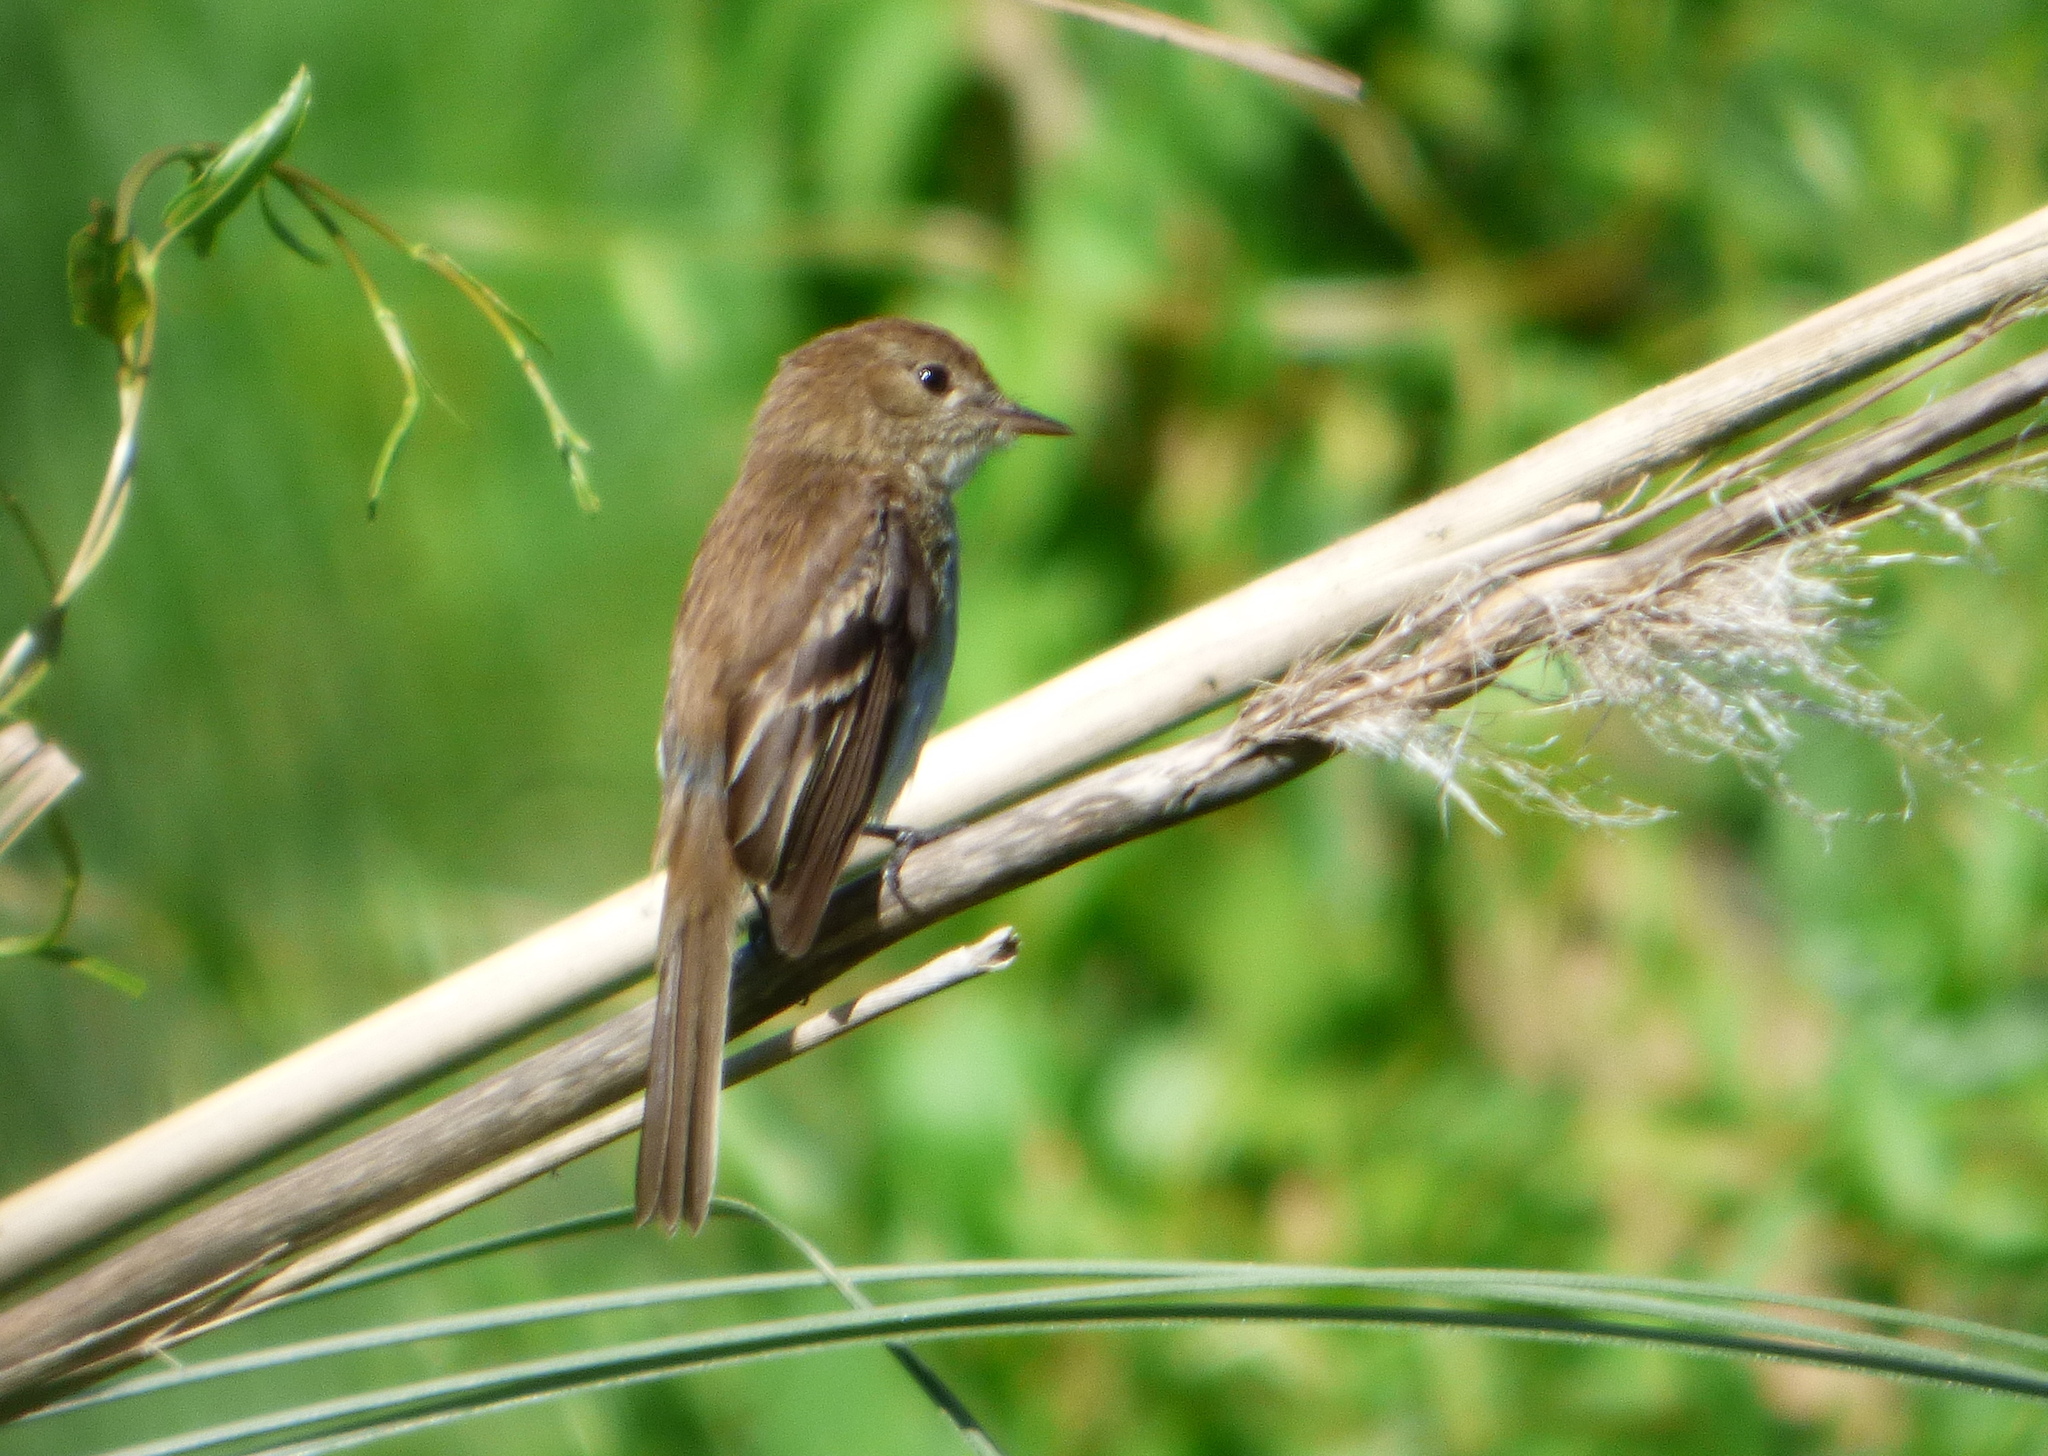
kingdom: Animalia
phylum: Chordata
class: Aves
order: Passeriformes
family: Tyrannidae
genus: Myiophobus
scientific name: Myiophobus fasciatus
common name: Bran-colored flycatcher
